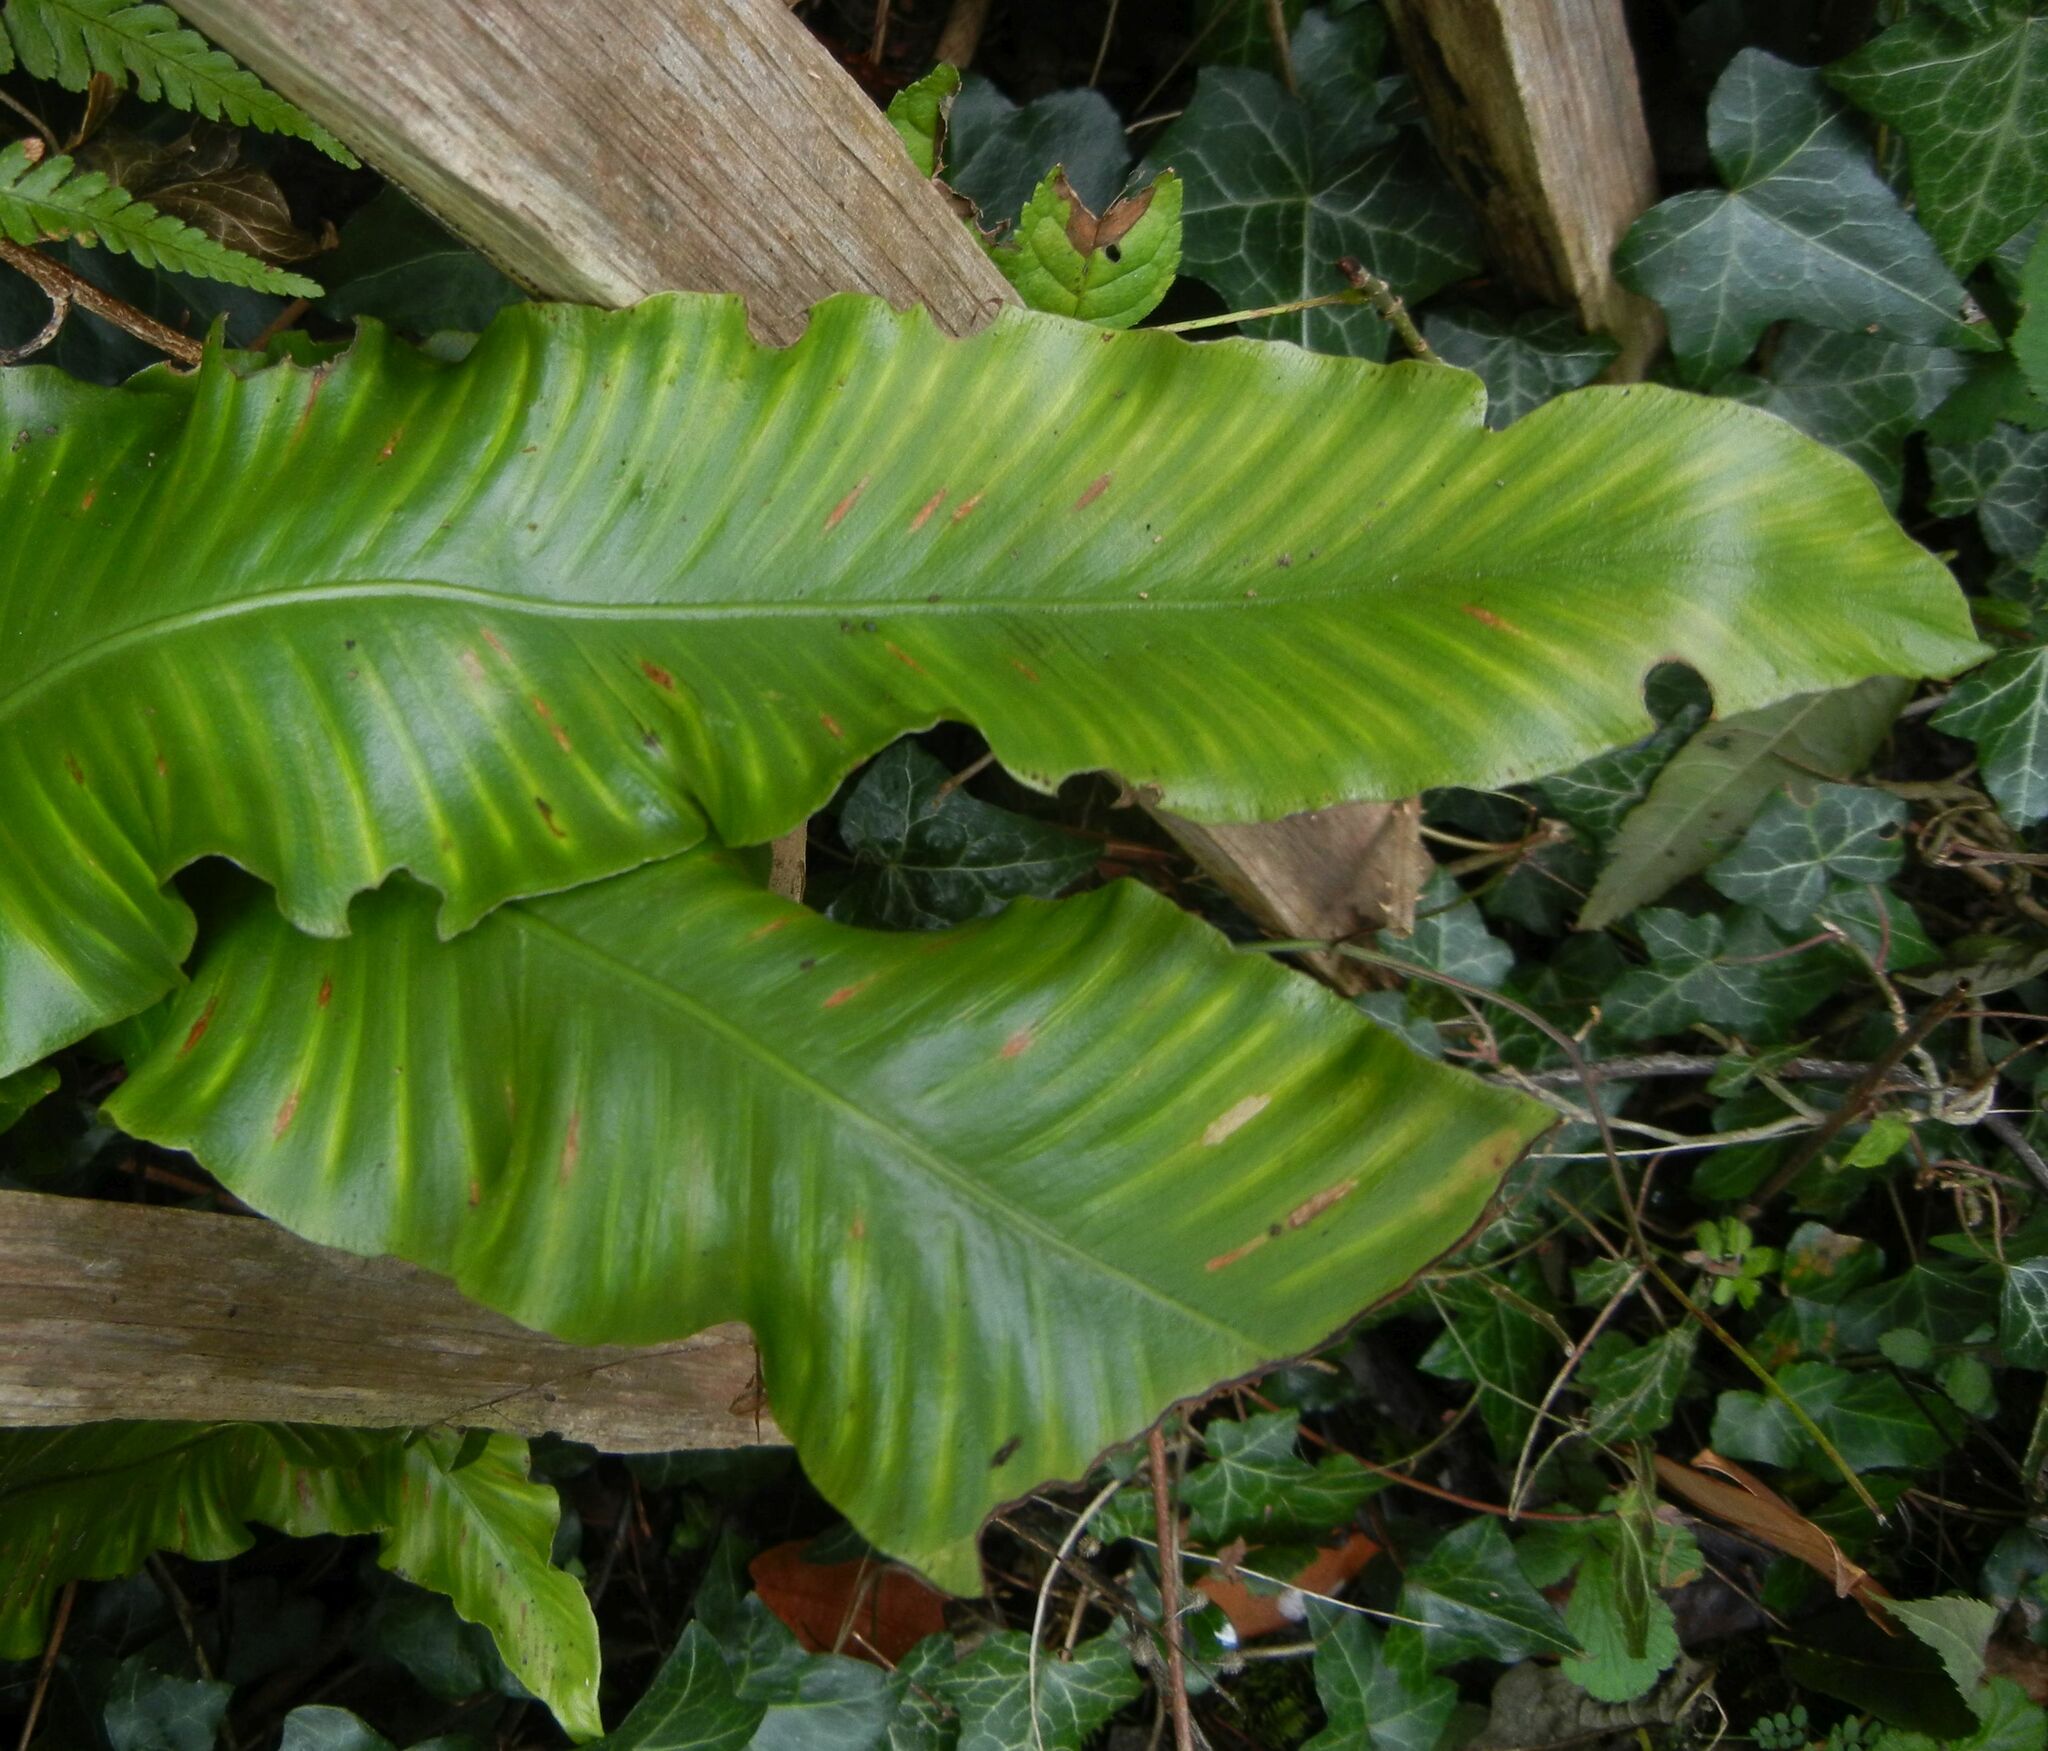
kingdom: Plantae
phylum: Tracheophyta
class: Polypodiopsida
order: Polypodiales
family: Aspleniaceae
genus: Asplenium
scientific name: Asplenium scolopendrium
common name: Hart's-tongue fern
